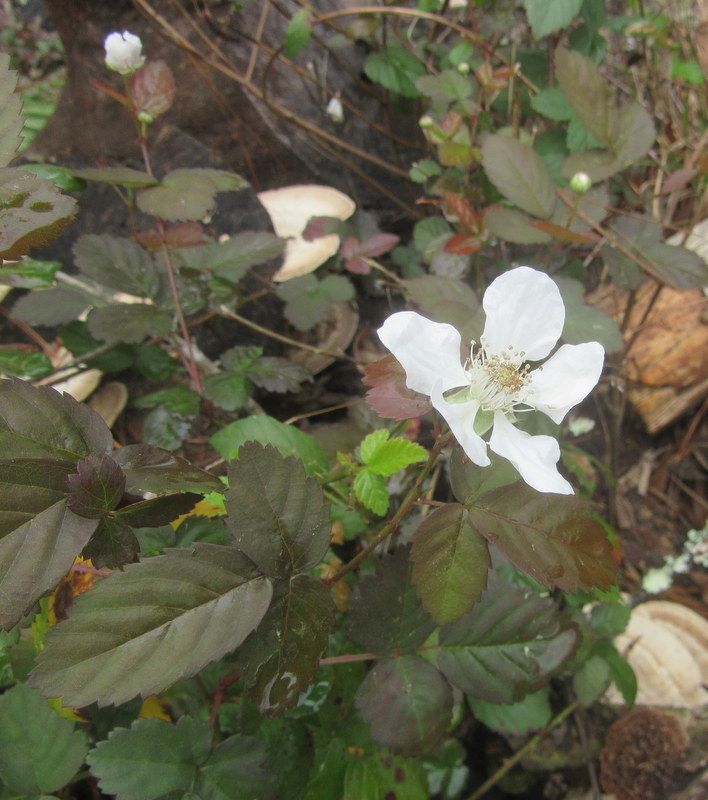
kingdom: Plantae
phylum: Tracheophyta
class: Magnoliopsida
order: Rosales
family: Rosaceae
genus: Rubus
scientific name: Rubus trivialis
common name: Southern dewberry
